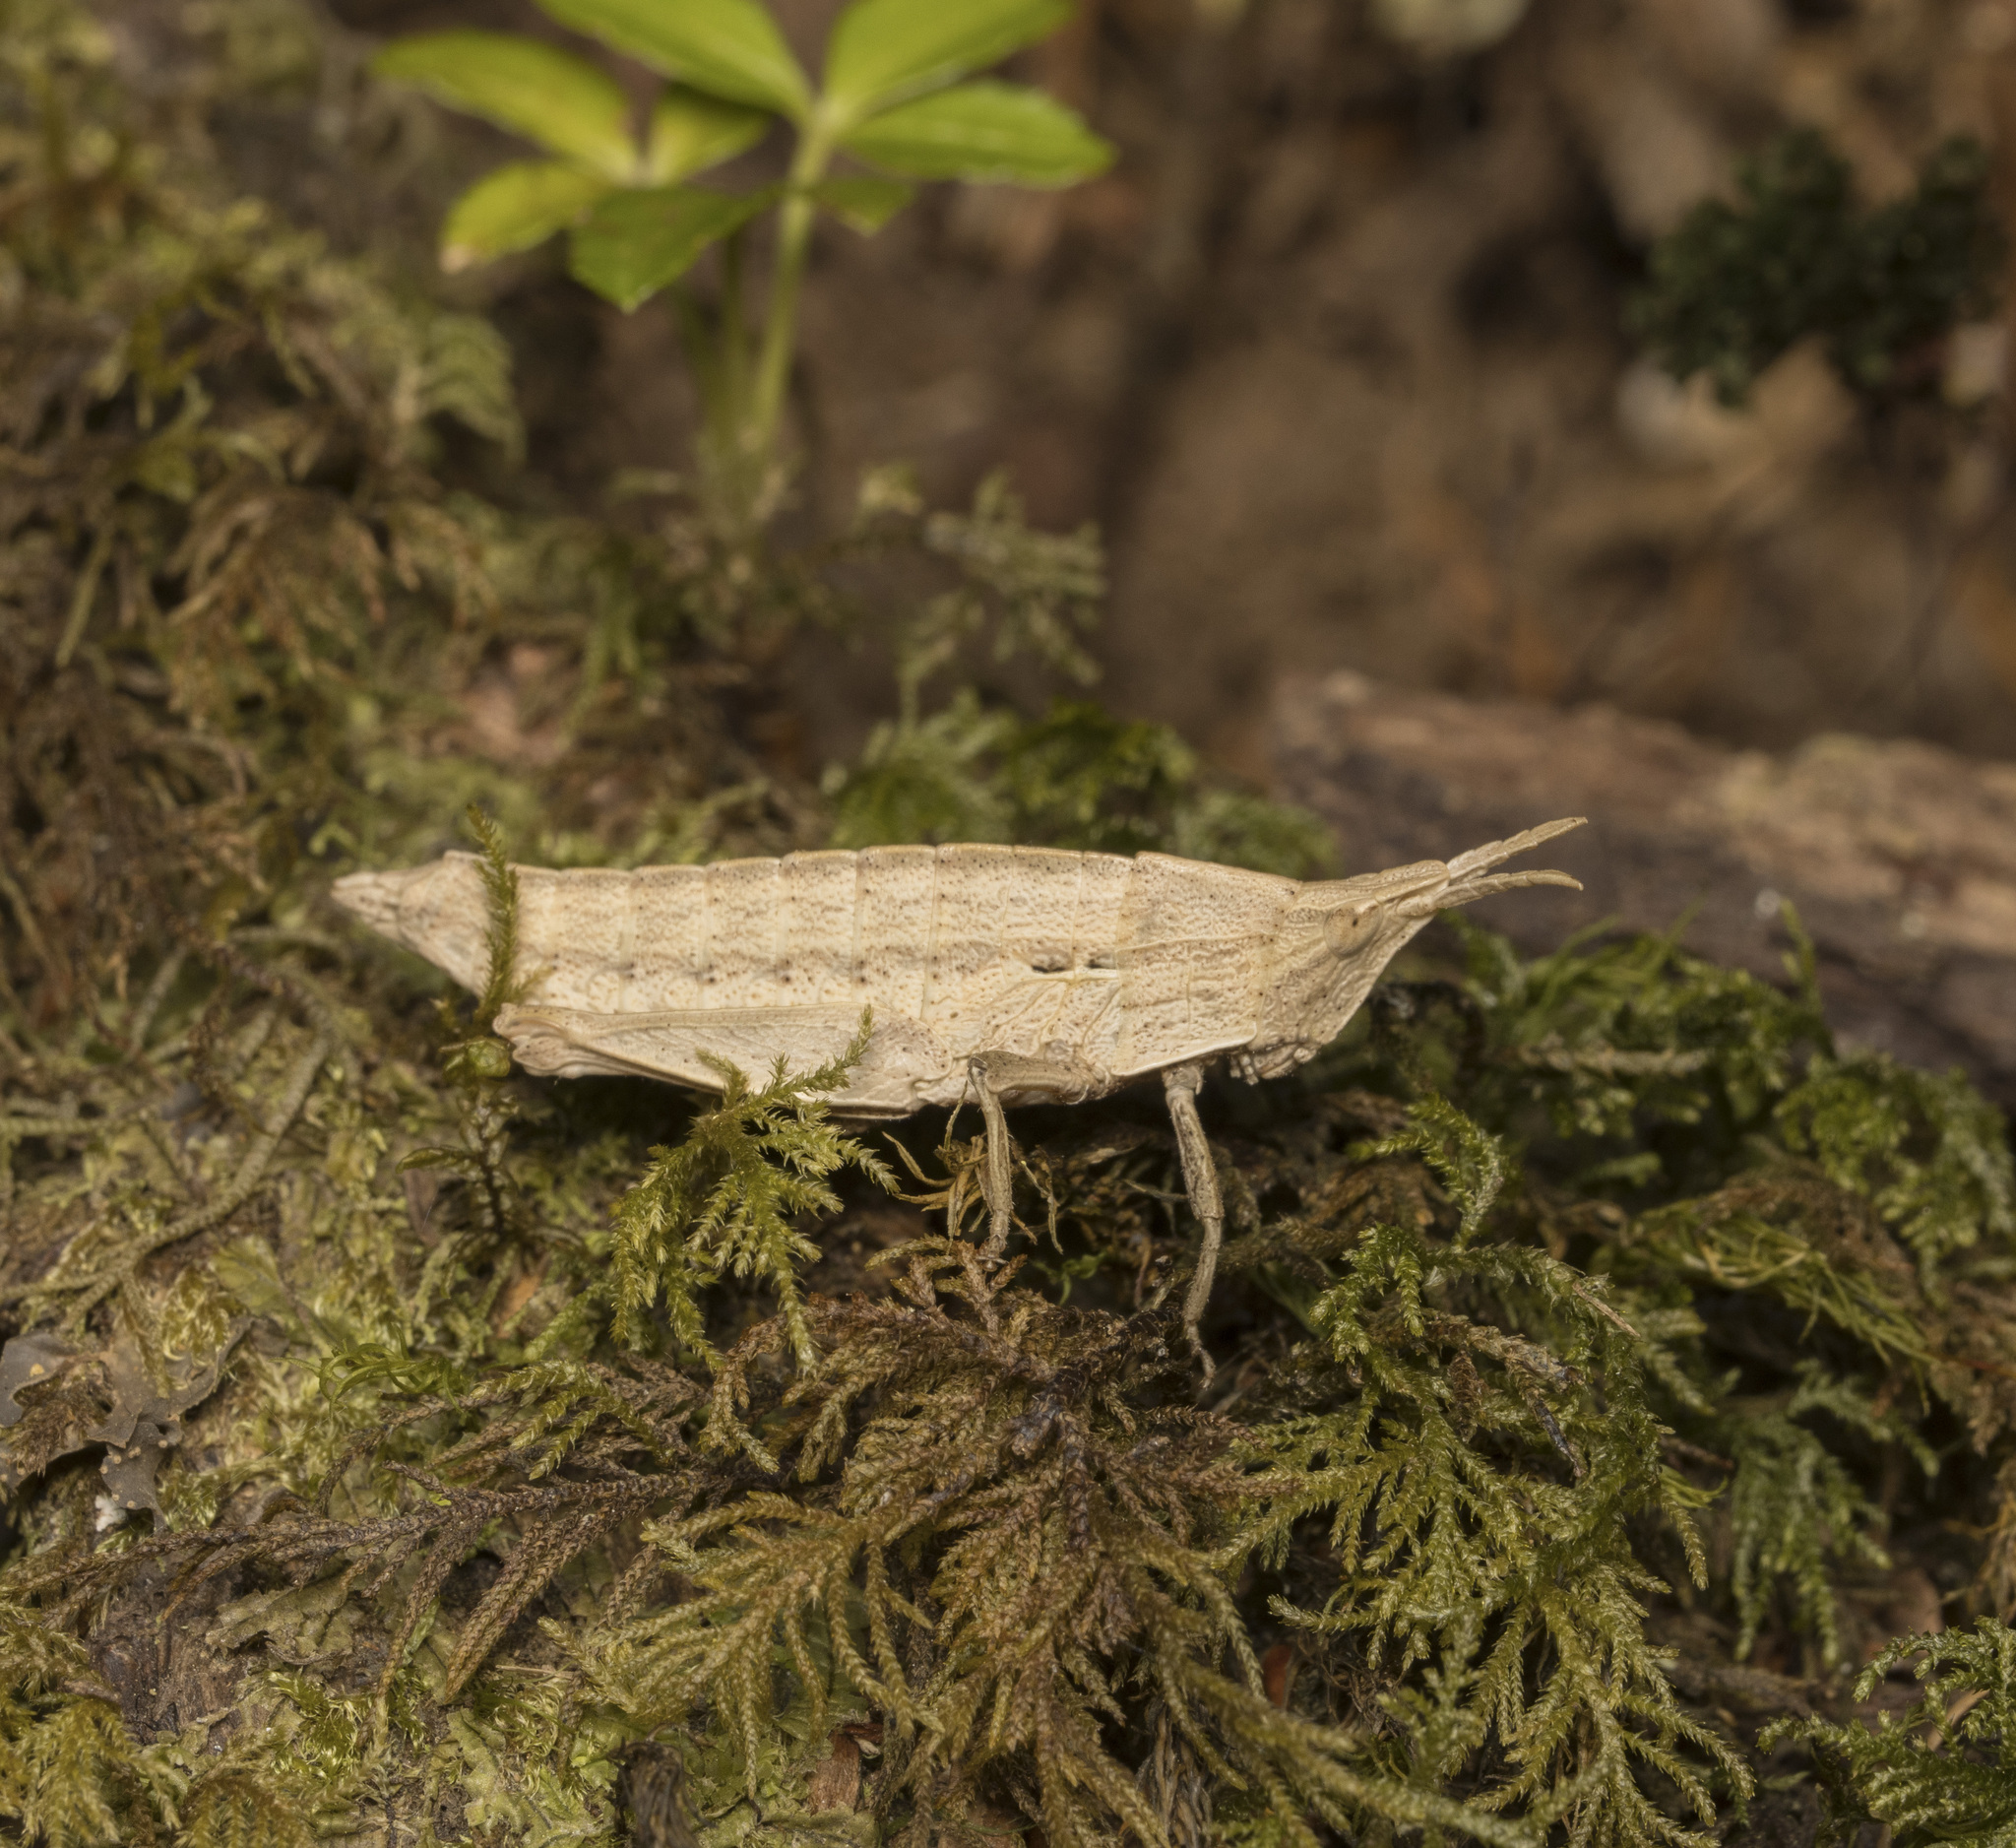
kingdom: Animalia
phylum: Arthropoda
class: Insecta
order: Orthoptera
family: Tristiridae
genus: Tropidostethus
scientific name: Tropidostethus angusticollis
